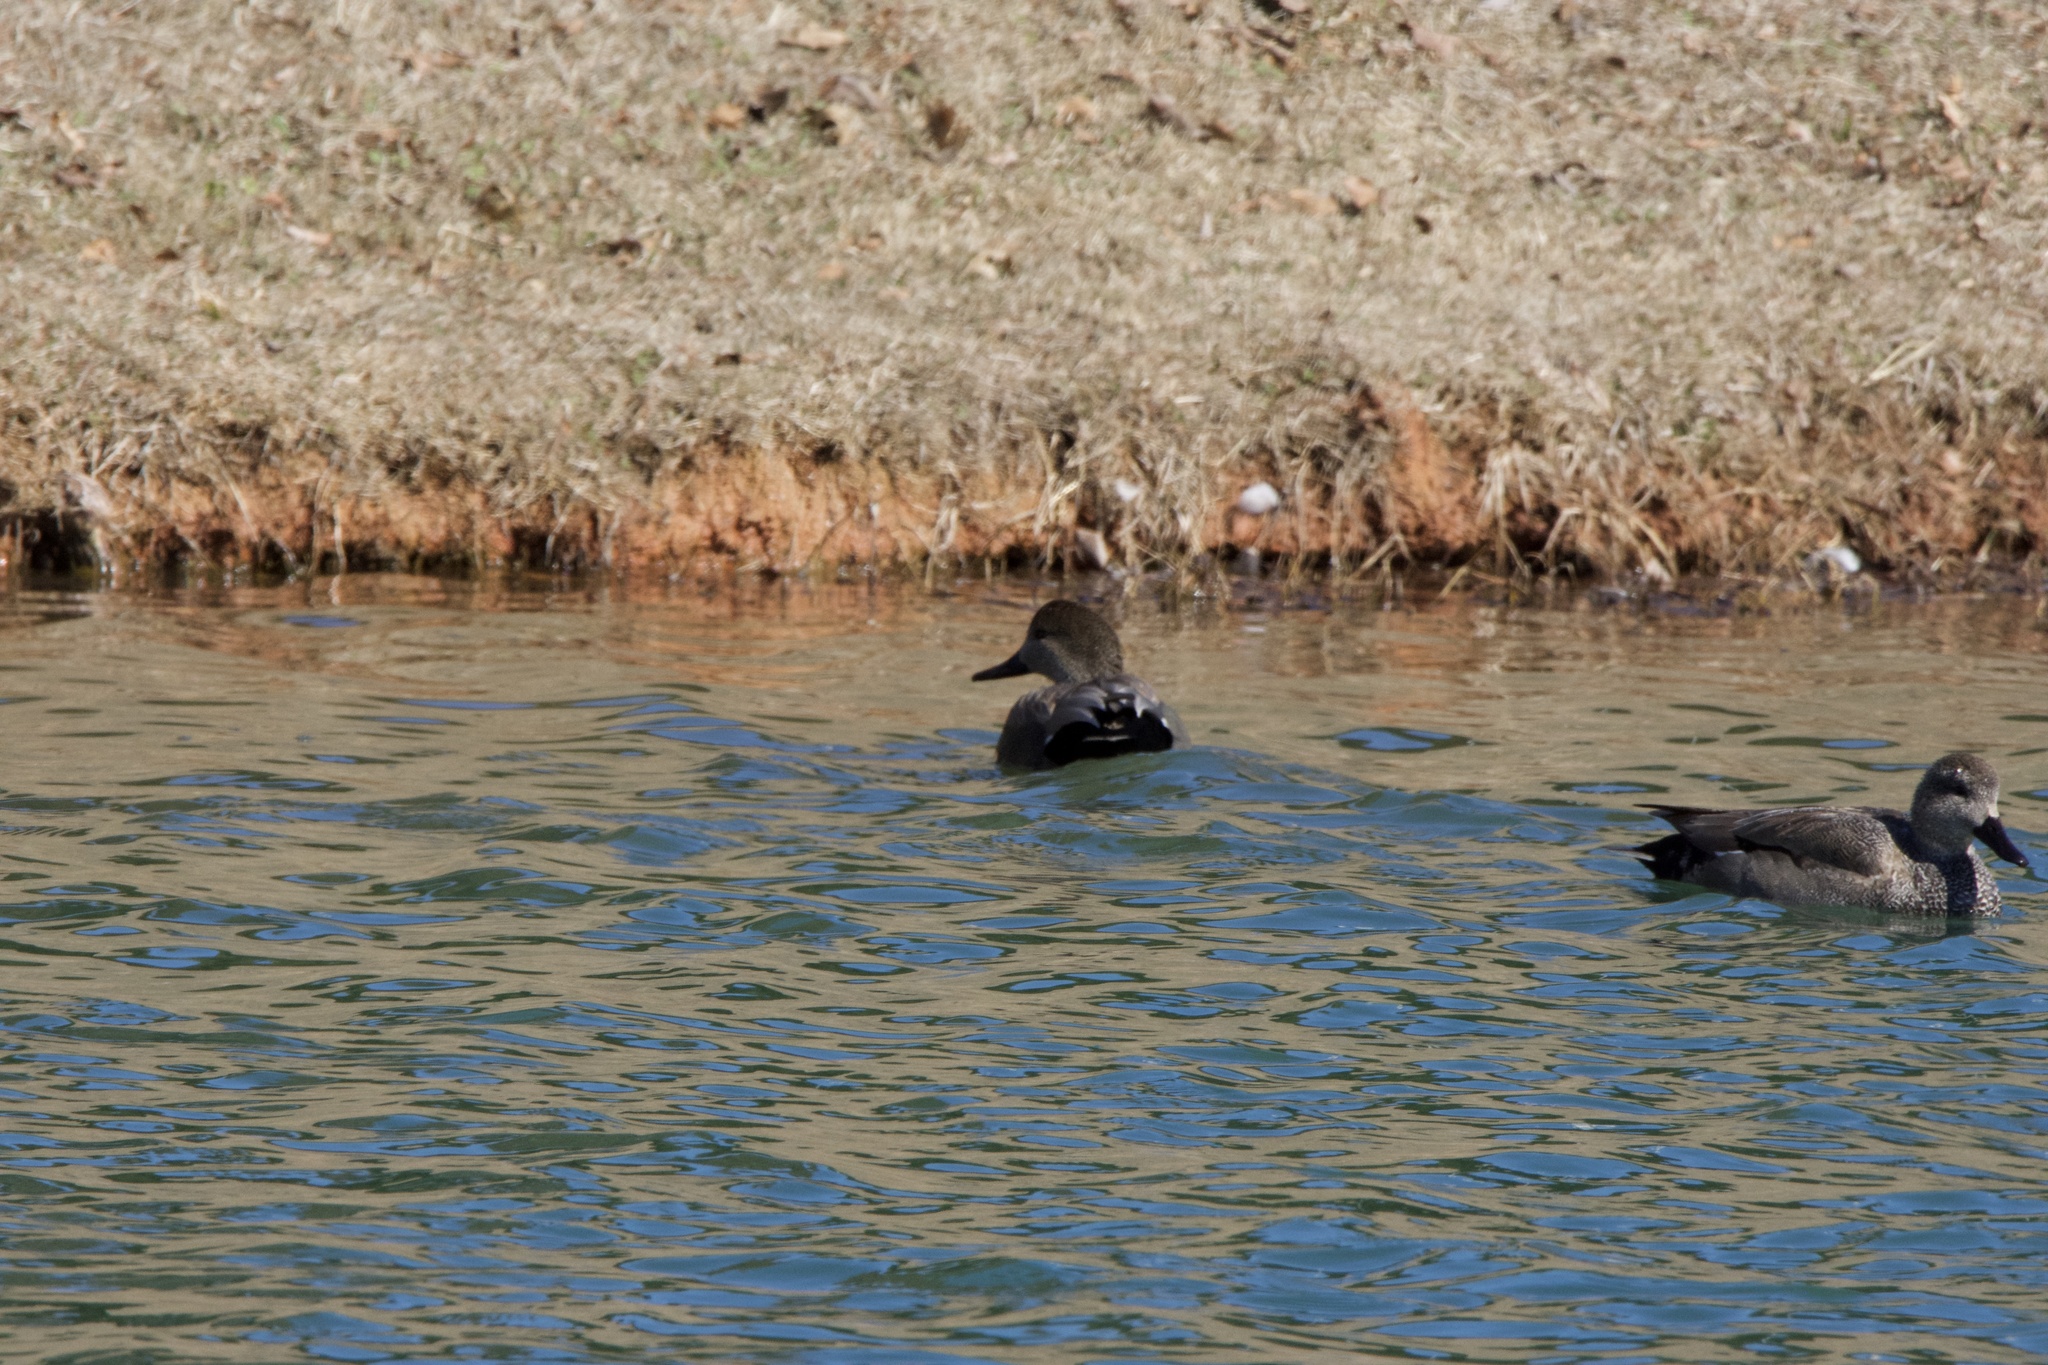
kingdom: Animalia
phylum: Chordata
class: Aves
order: Anseriformes
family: Anatidae
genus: Mareca
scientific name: Mareca strepera
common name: Gadwall
